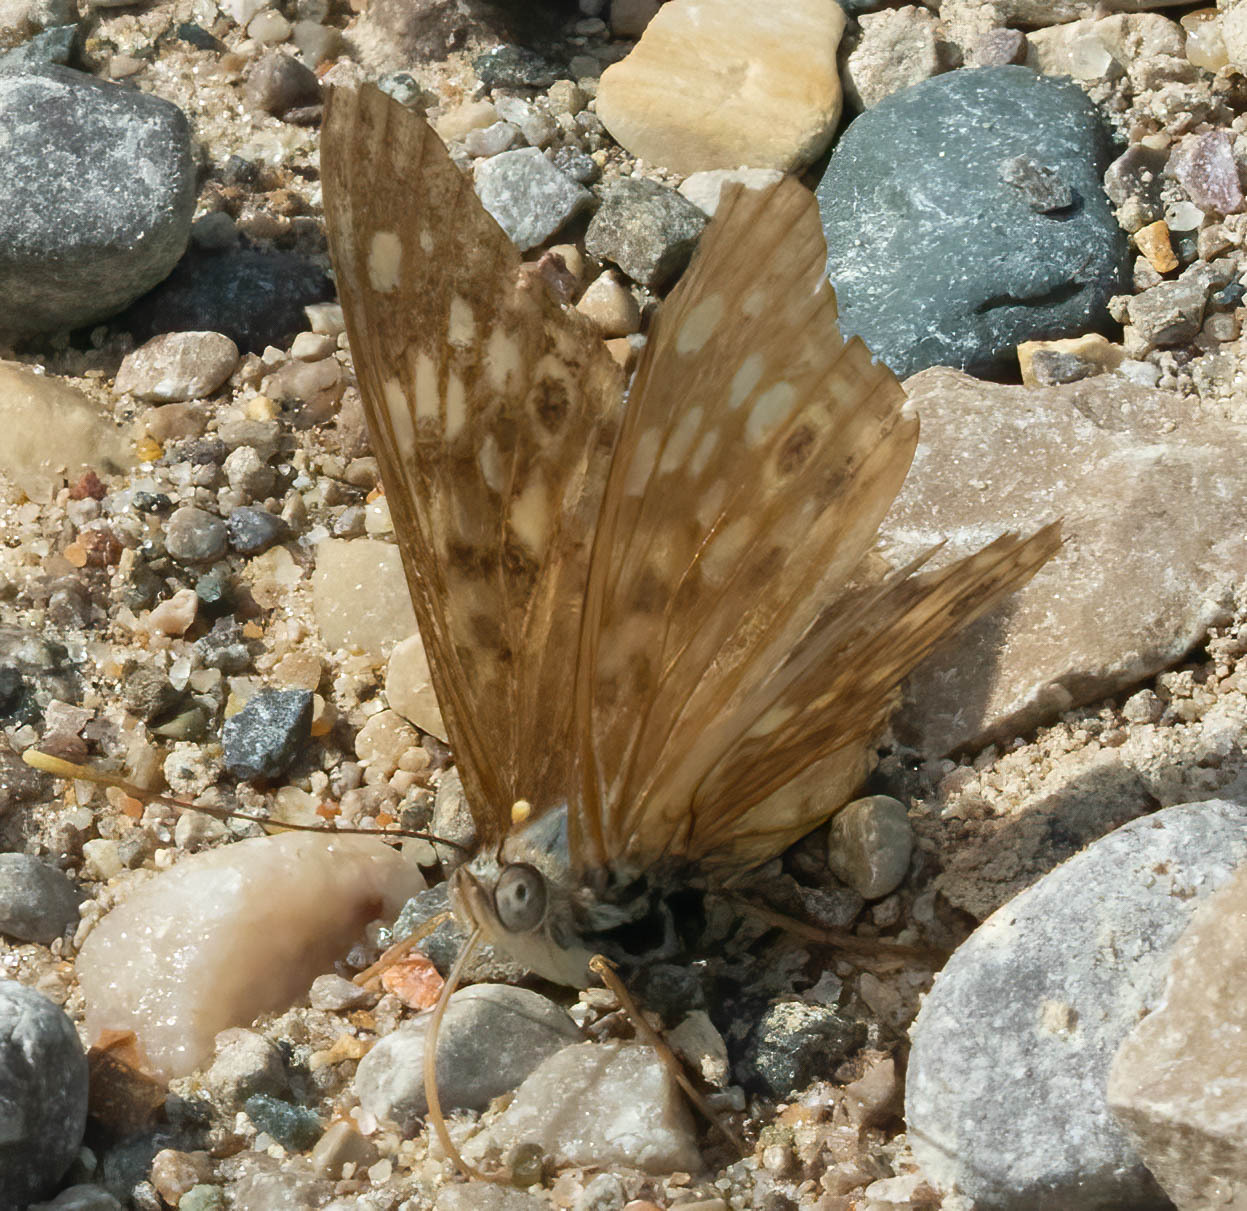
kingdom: Animalia
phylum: Arthropoda
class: Insecta
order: Lepidoptera
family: Nymphalidae
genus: Asterocampa
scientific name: Asterocampa celtis
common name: Hackberry emperor
